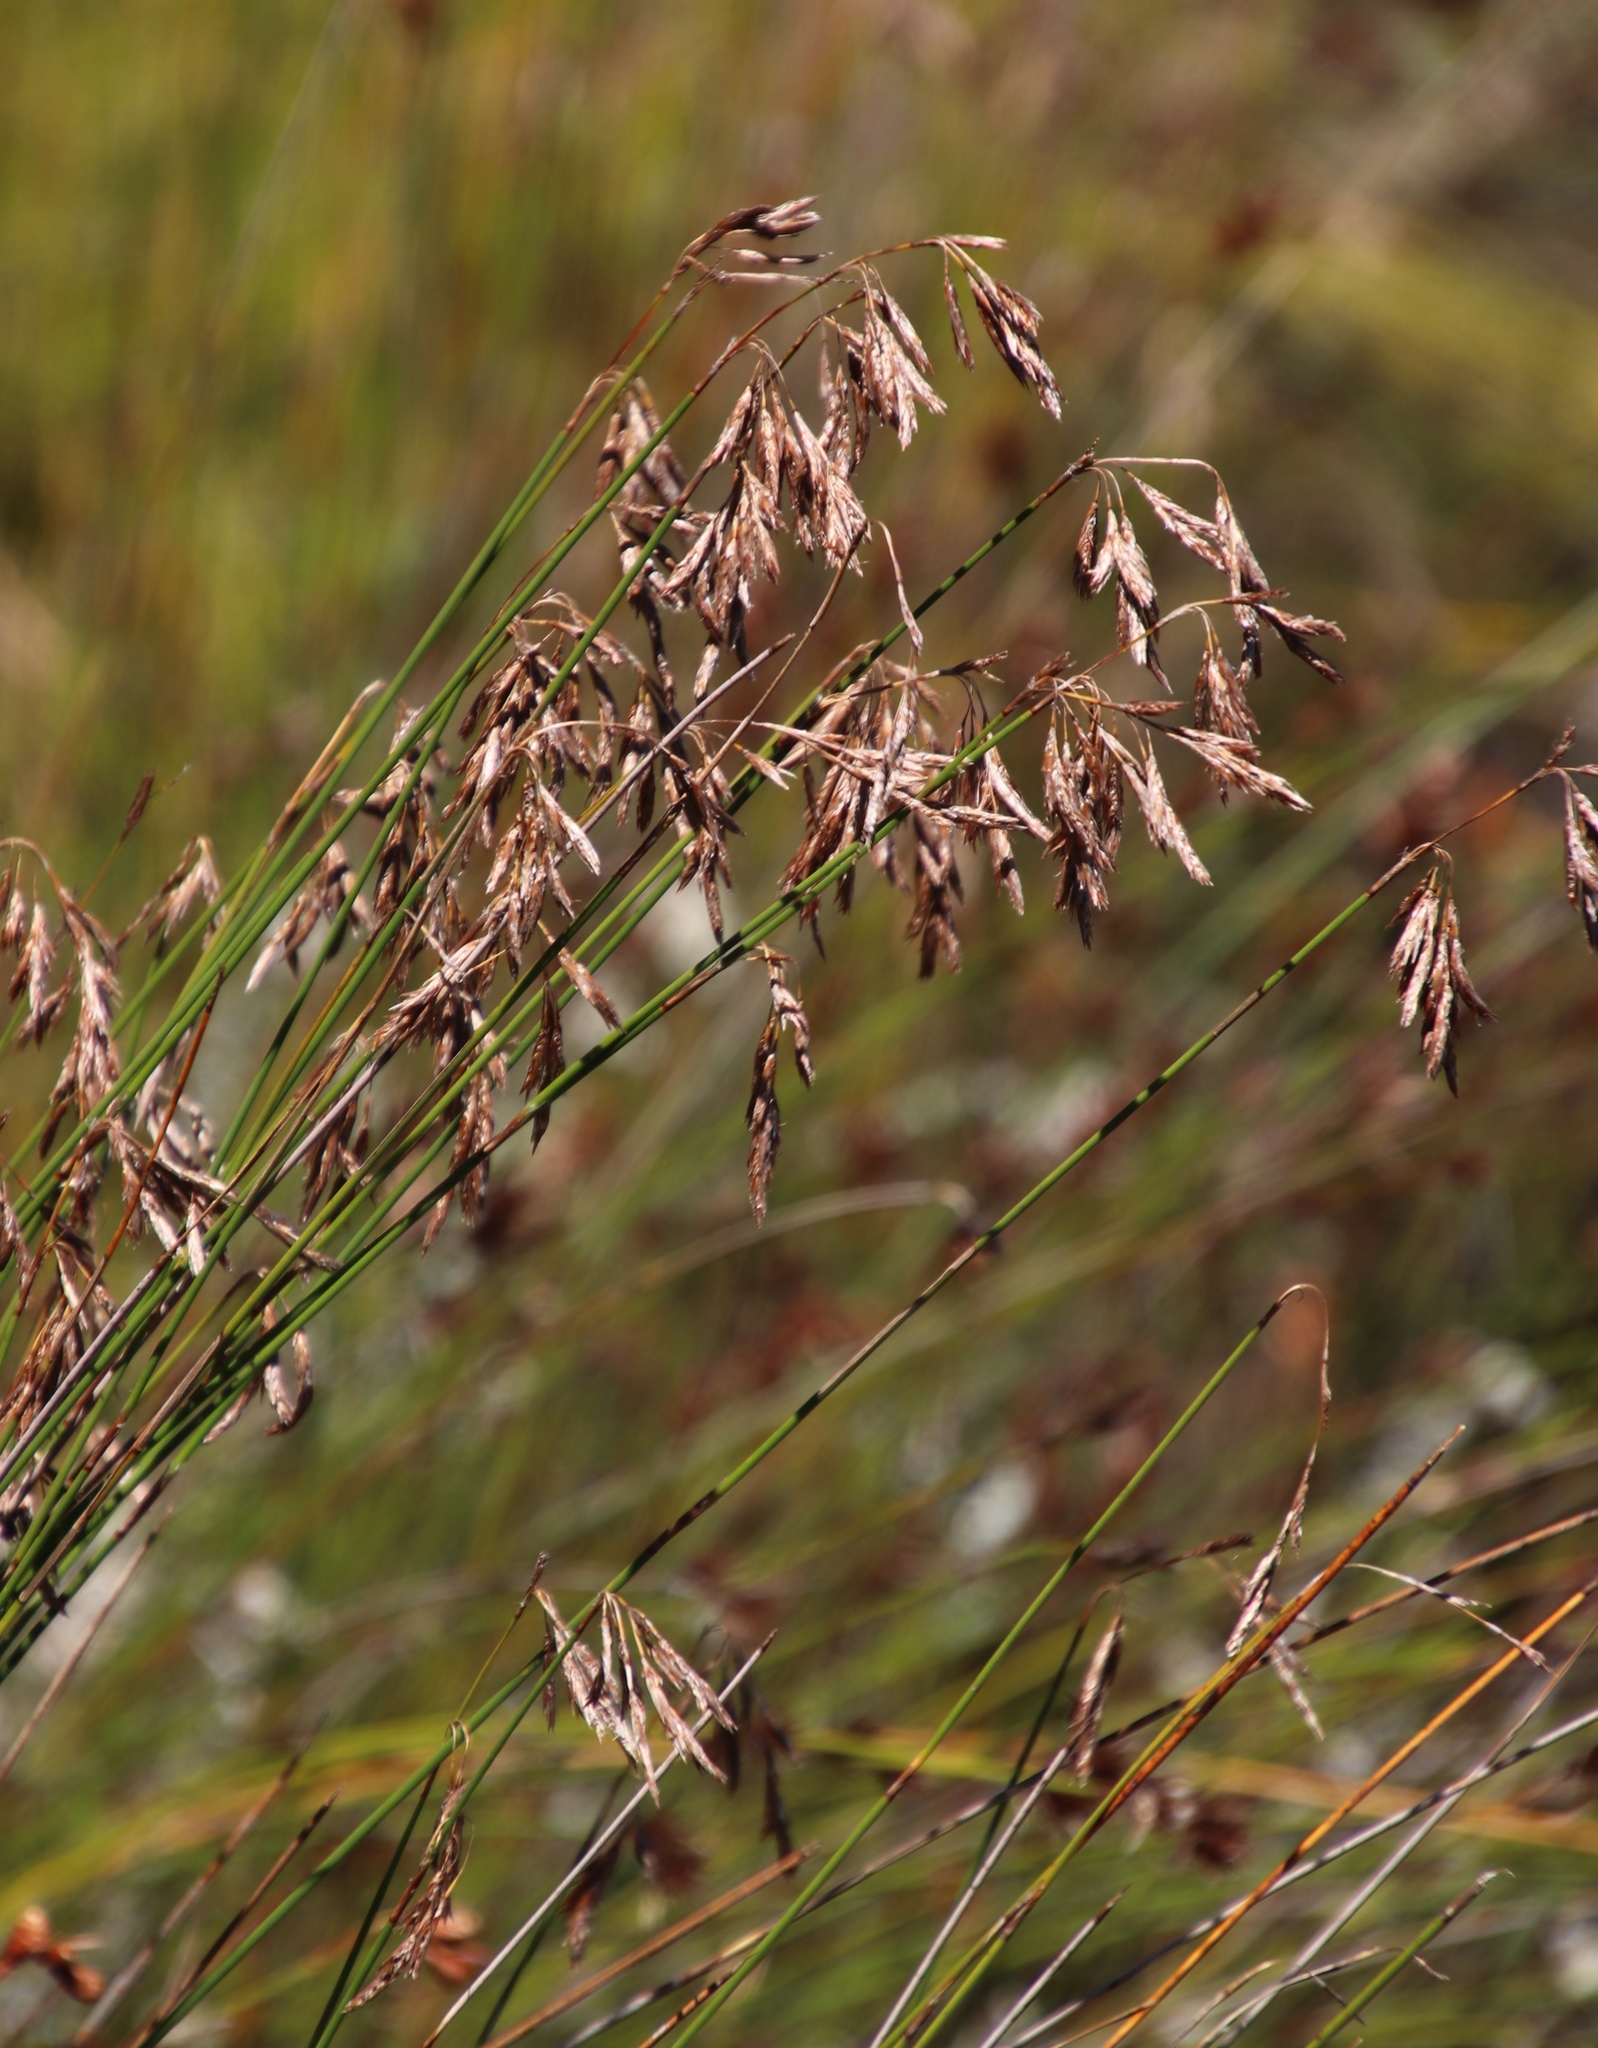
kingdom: Plantae
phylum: Tracheophyta
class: Liliopsida
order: Poales
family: Restionaceae
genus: Thamnochortus
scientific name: Thamnochortus lucens
